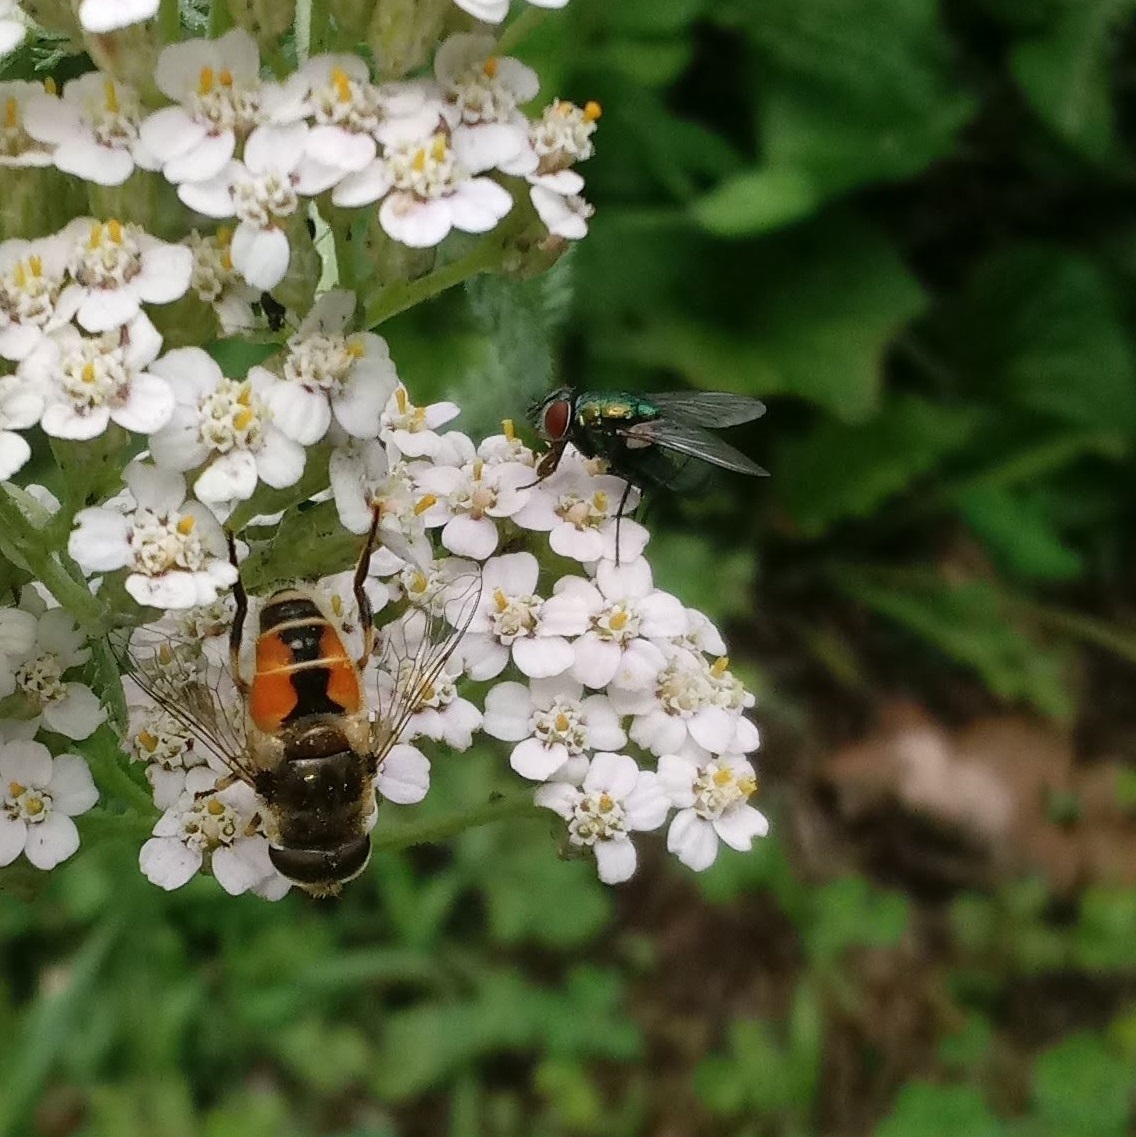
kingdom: Animalia
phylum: Arthropoda
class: Insecta
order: Diptera
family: Calliphoridae
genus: Lucilia
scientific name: Lucilia sericata
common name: Blow fly
